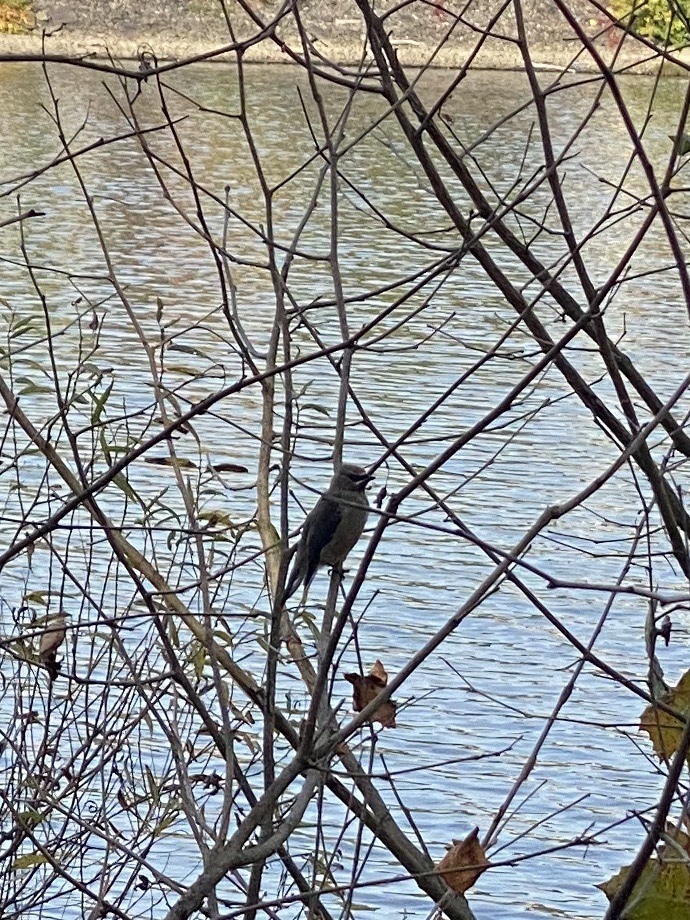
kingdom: Animalia
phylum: Chordata
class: Aves
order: Passeriformes
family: Bombycillidae
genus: Bombycilla
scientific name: Bombycilla cedrorum
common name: Cedar waxwing
